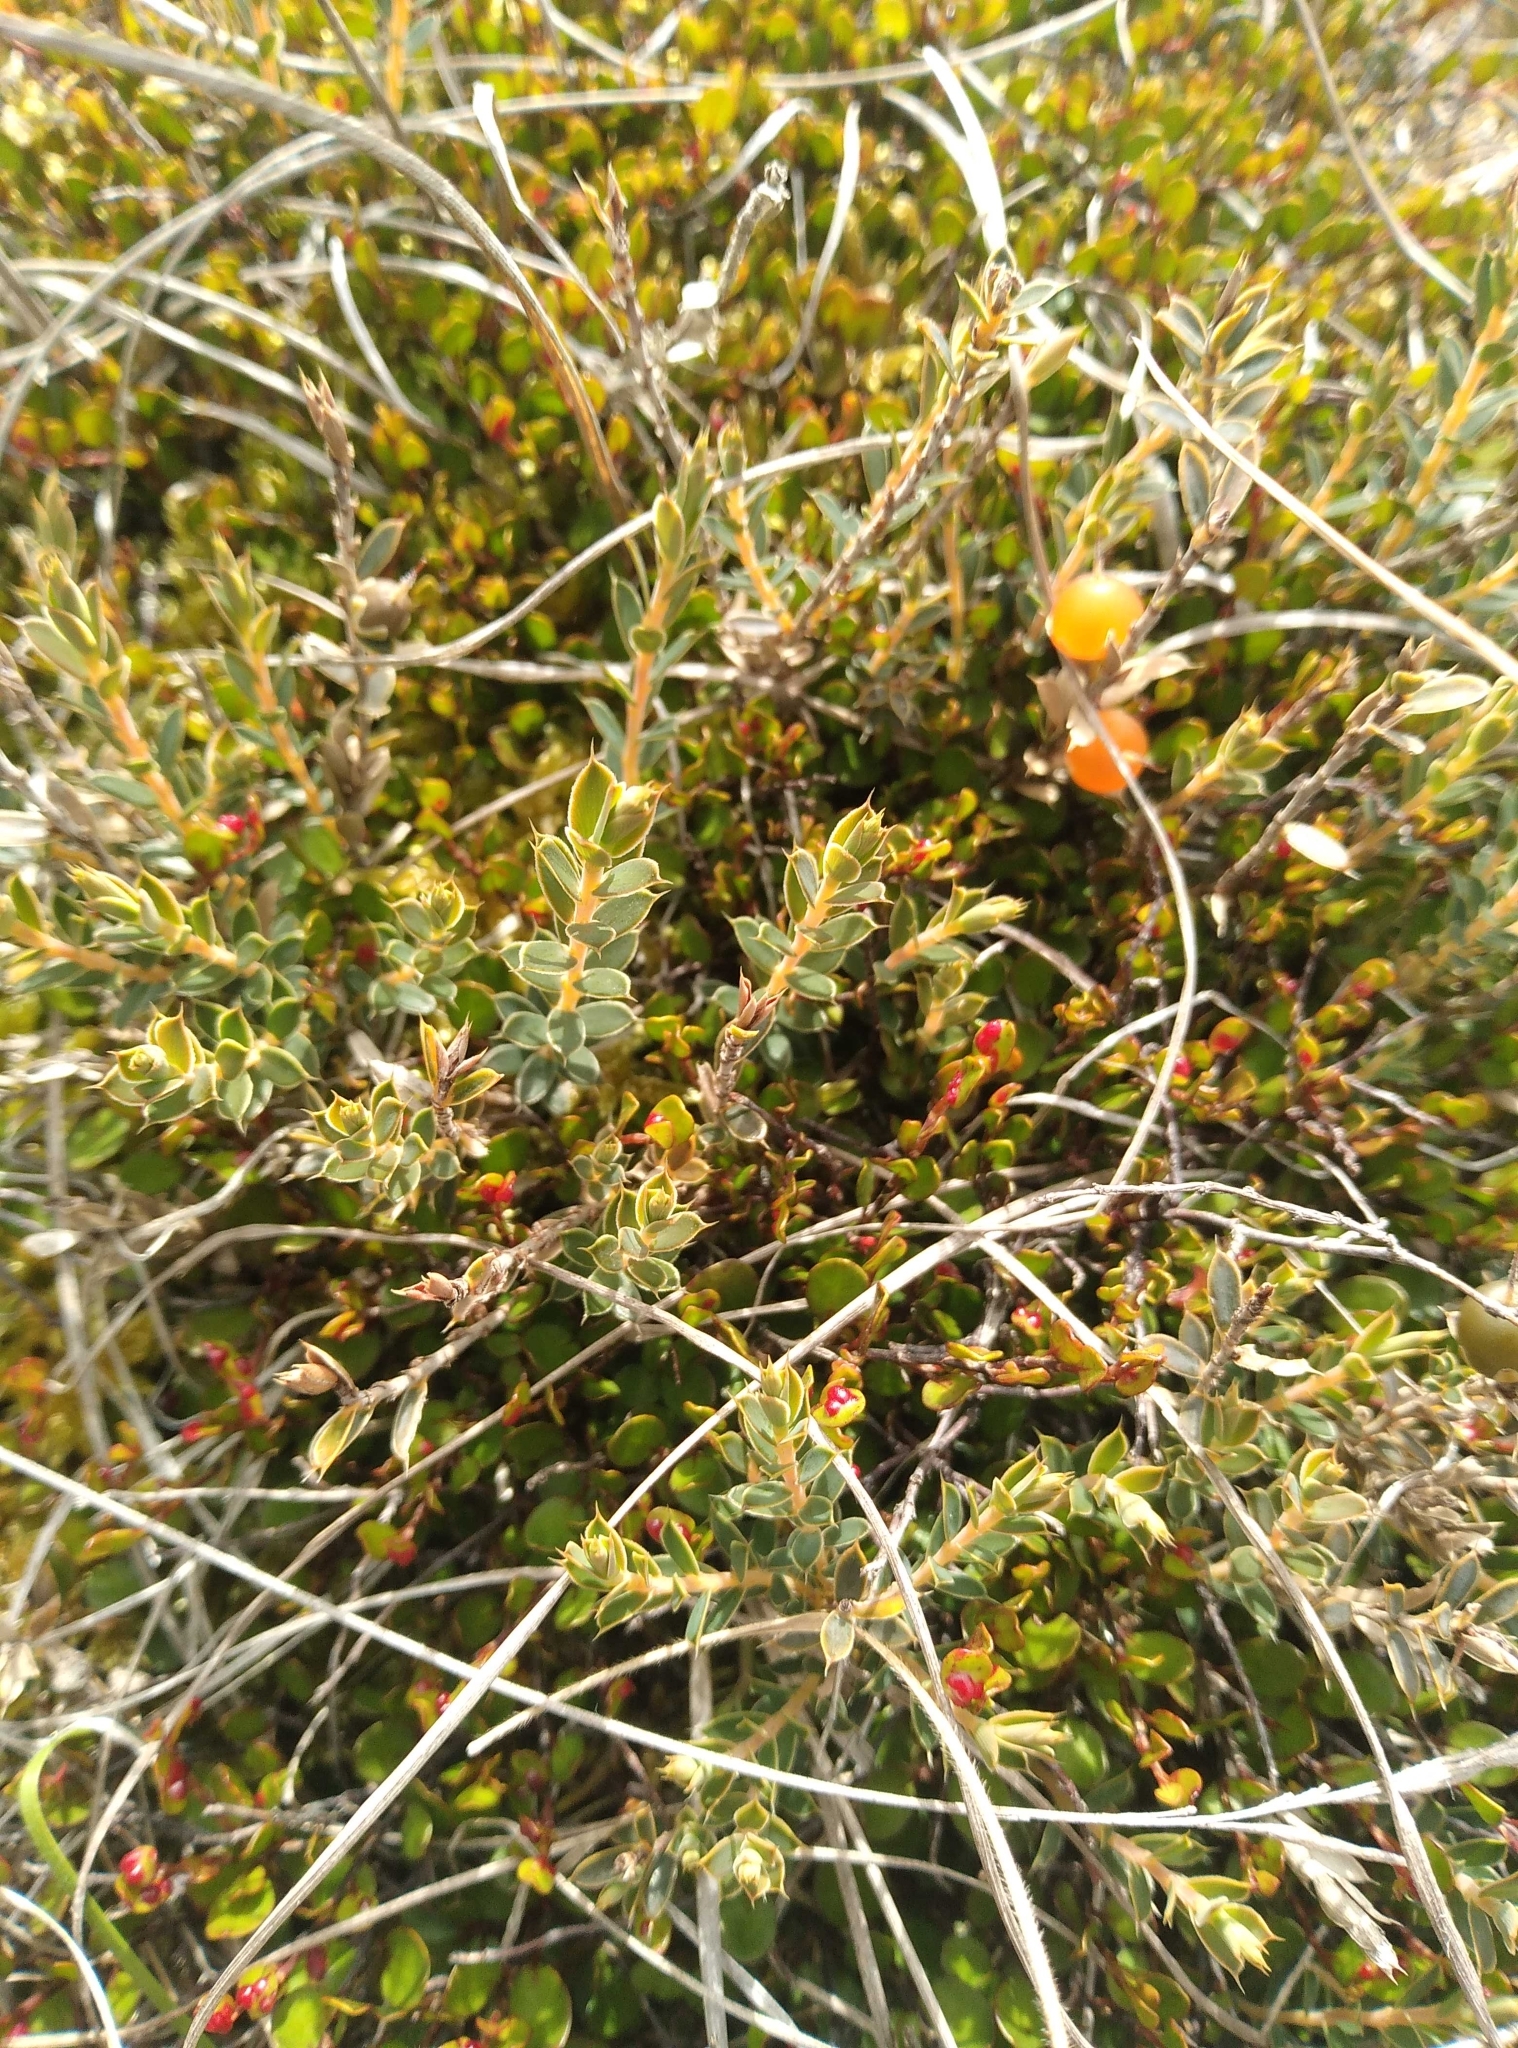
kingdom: Plantae
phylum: Tracheophyta
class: Magnoliopsida
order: Ericales
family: Ericaceae
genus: Styphelia
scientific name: Styphelia nesophila
